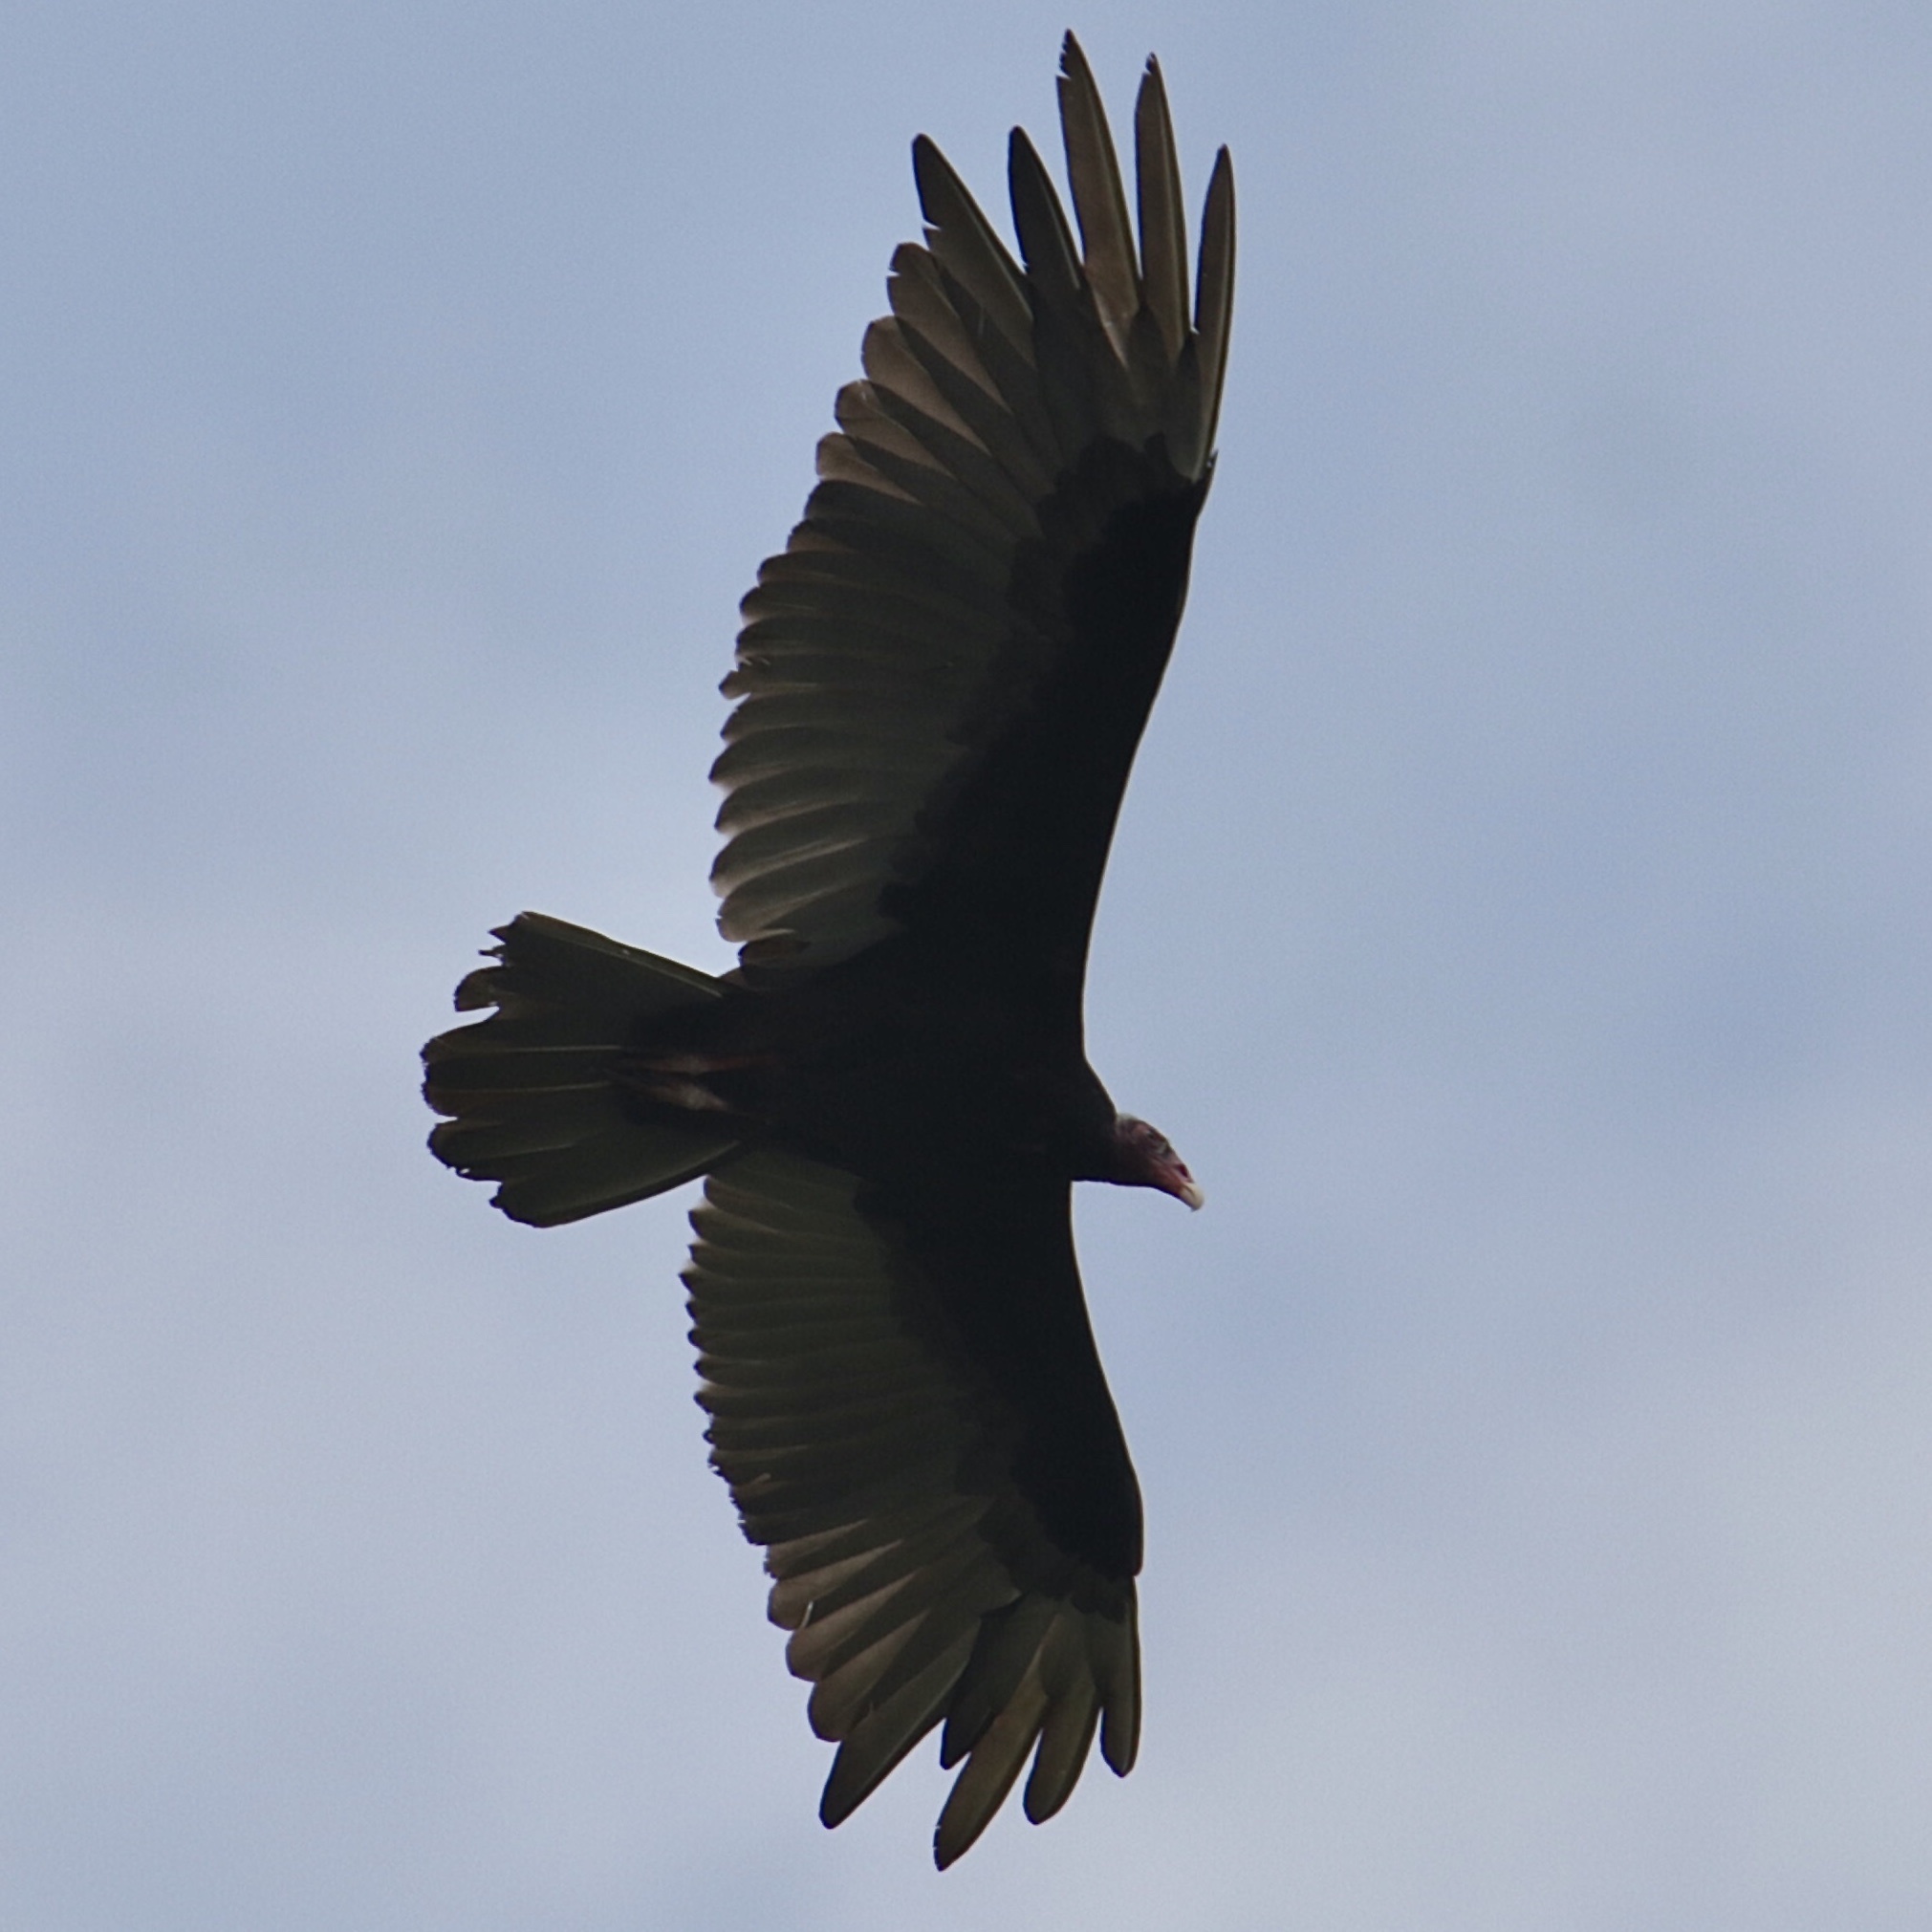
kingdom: Animalia
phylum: Chordata
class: Aves
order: Accipitriformes
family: Cathartidae
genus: Cathartes
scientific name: Cathartes aura
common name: Turkey vulture
